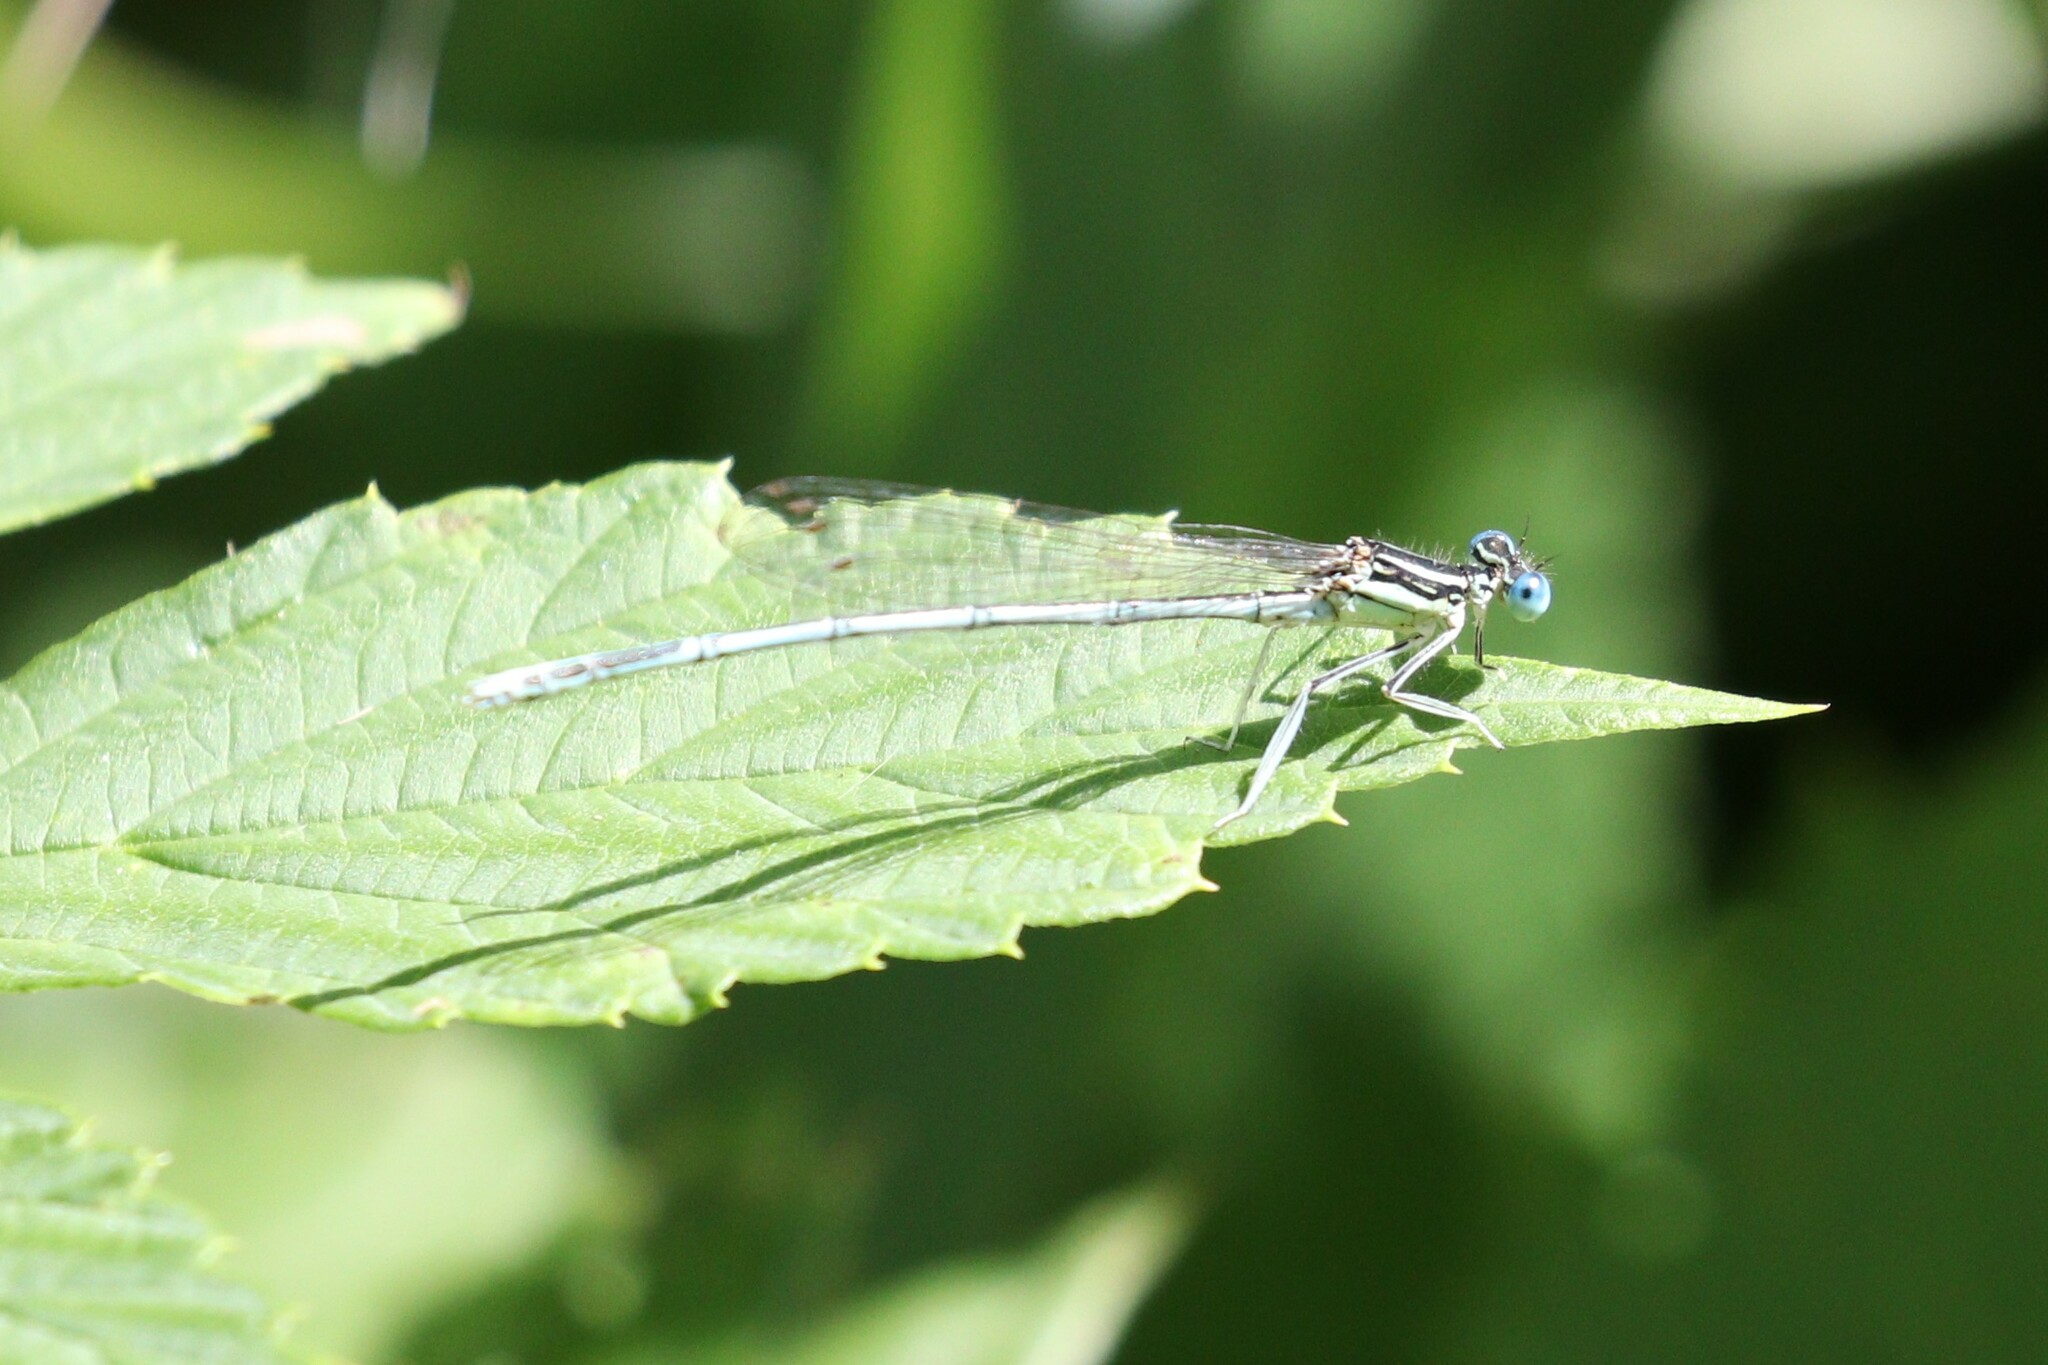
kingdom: Animalia
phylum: Arthropoda
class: Insecta
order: Odonata
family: Platycnemididae
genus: Platycnemis
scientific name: Platycnemis pennipes
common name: White-legged damselfly
